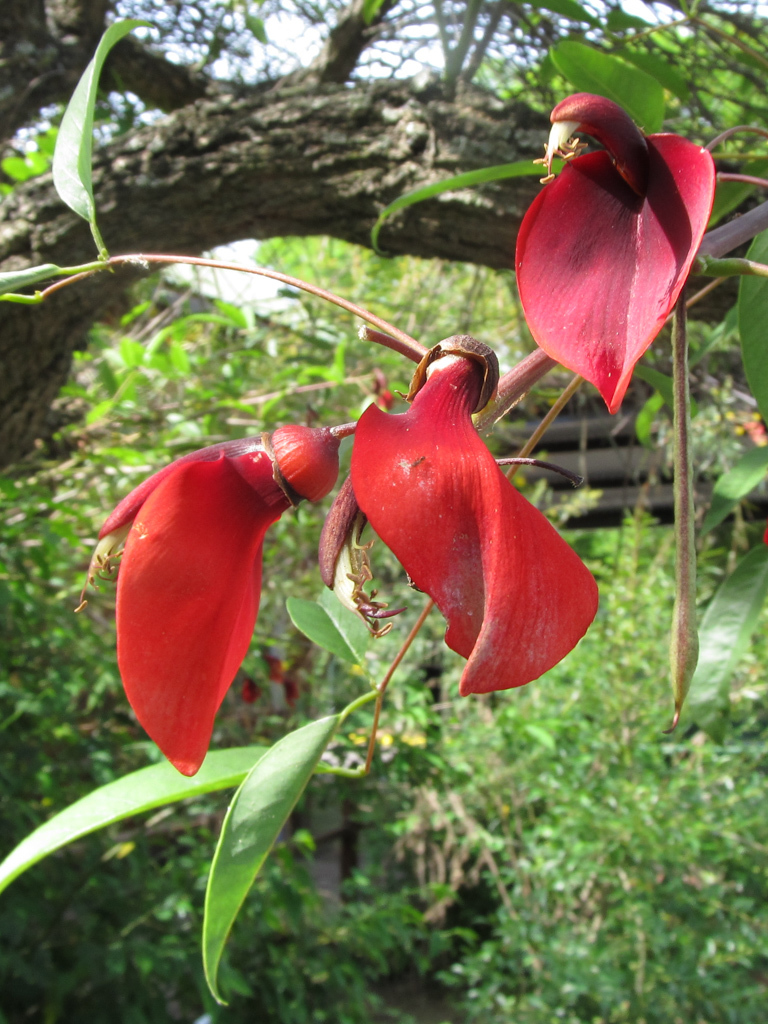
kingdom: Plantae
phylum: Tracheophyta
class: Magnoliopsida
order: Fabales
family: Fabaceae
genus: Erythrina
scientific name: Erythrina crista-galli
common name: Cockspur coral tree
